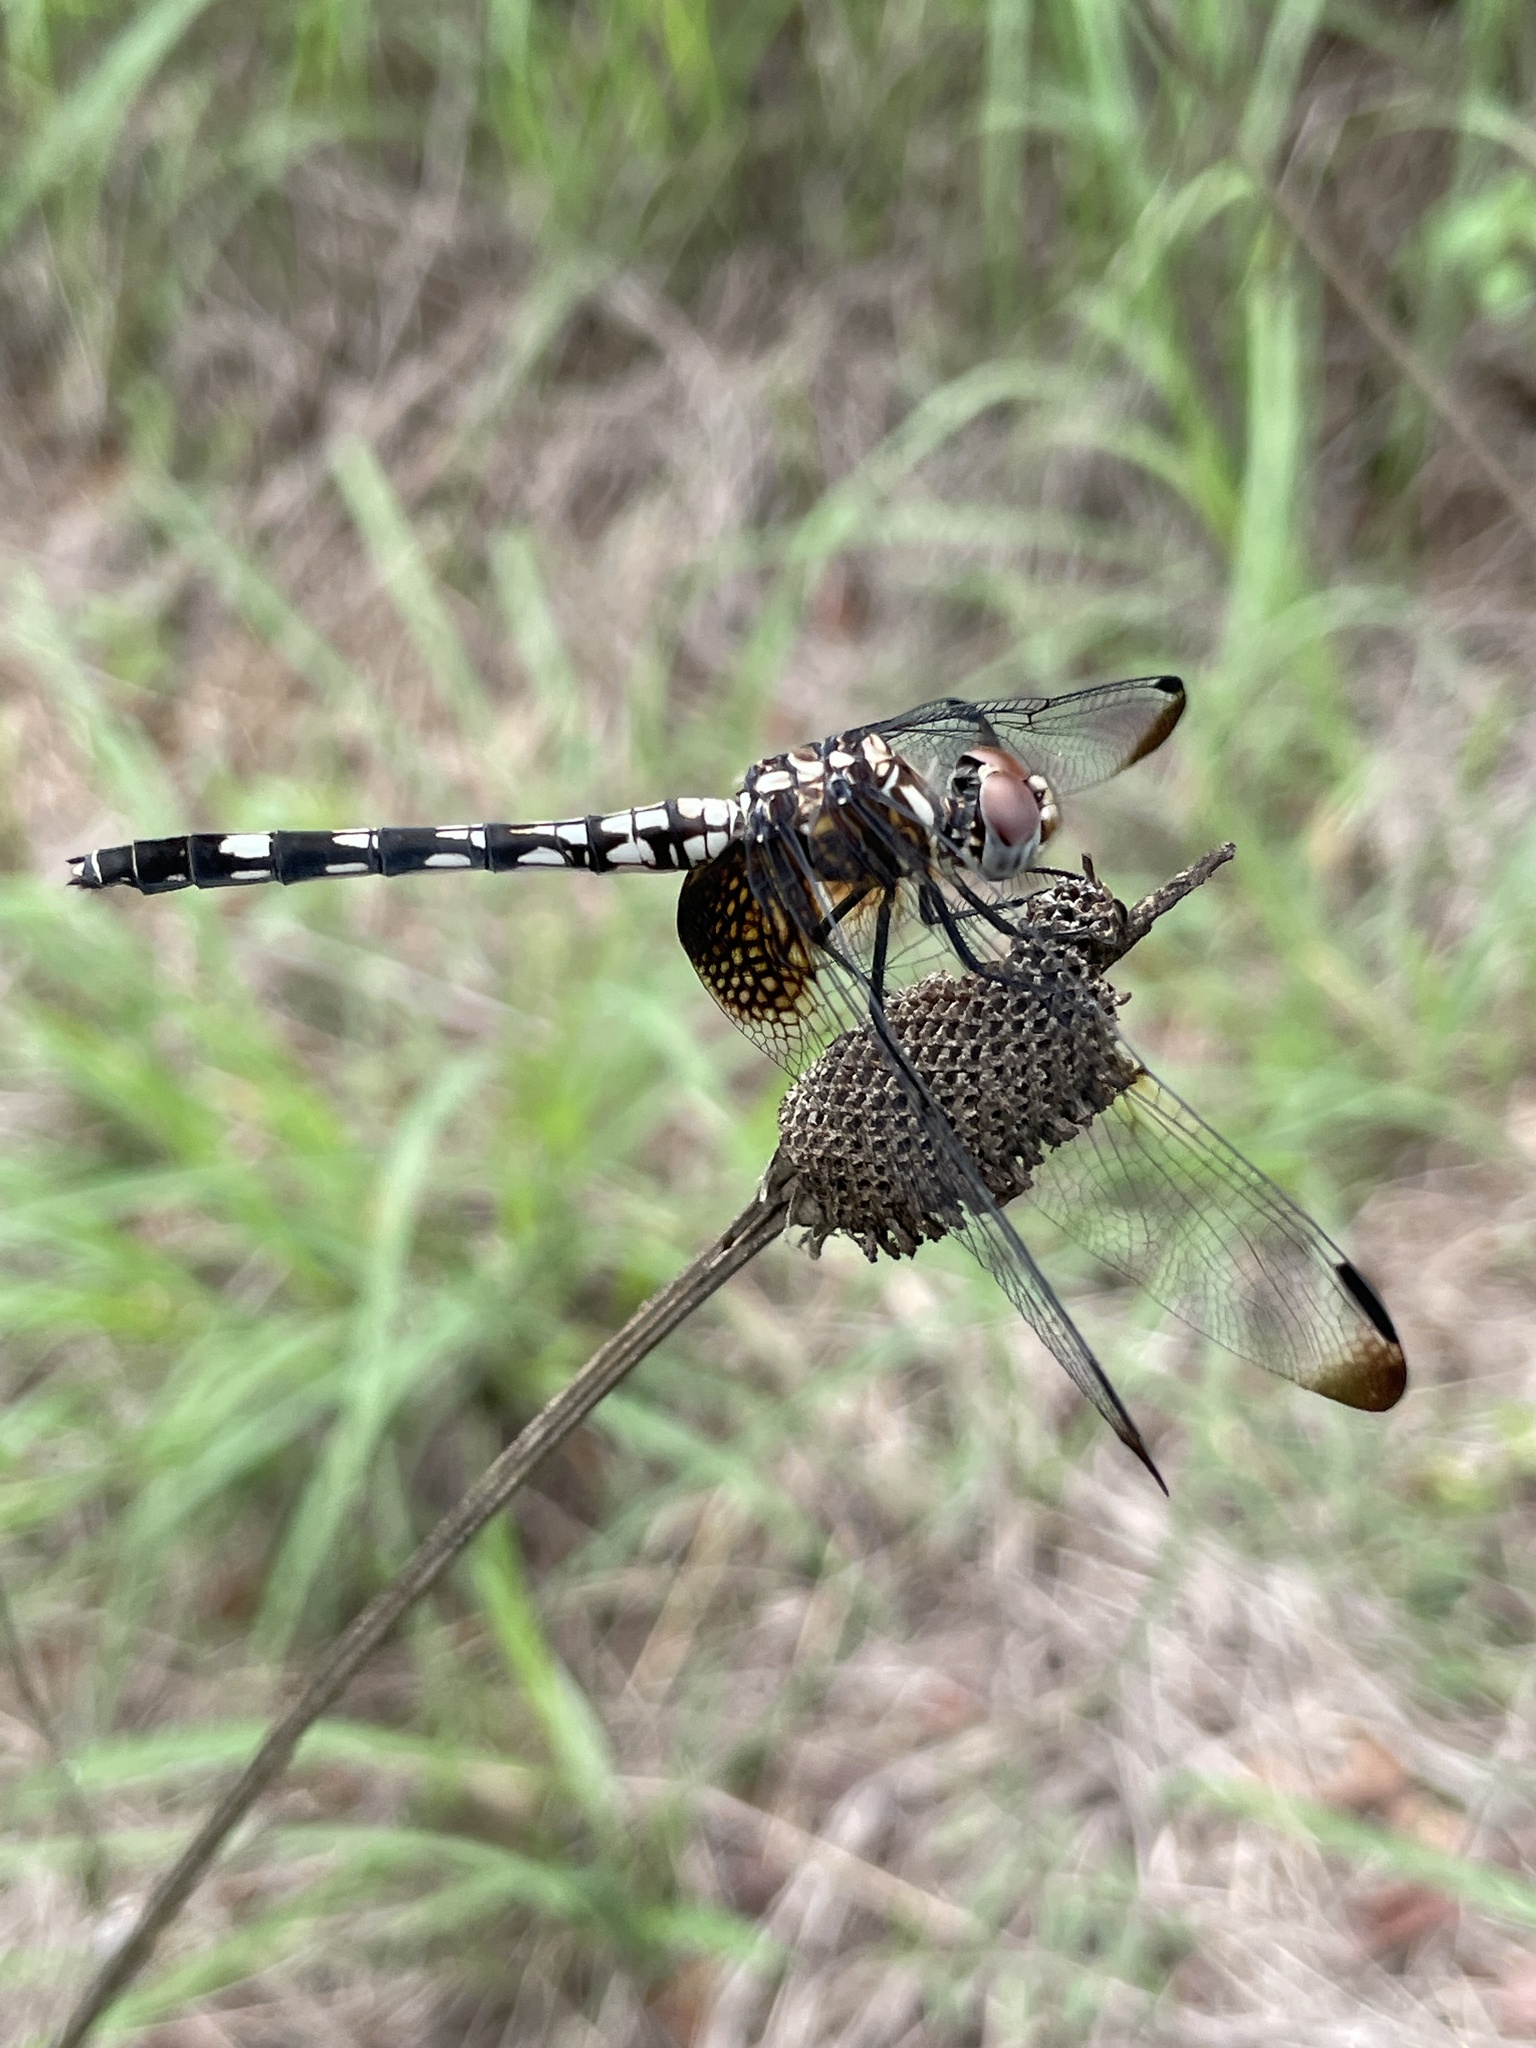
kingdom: Animalia
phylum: Arthropoda
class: Insecta
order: Odonata
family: Libellulidae
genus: Dythemis
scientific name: Dythemis fugax
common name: Checkered setwing
